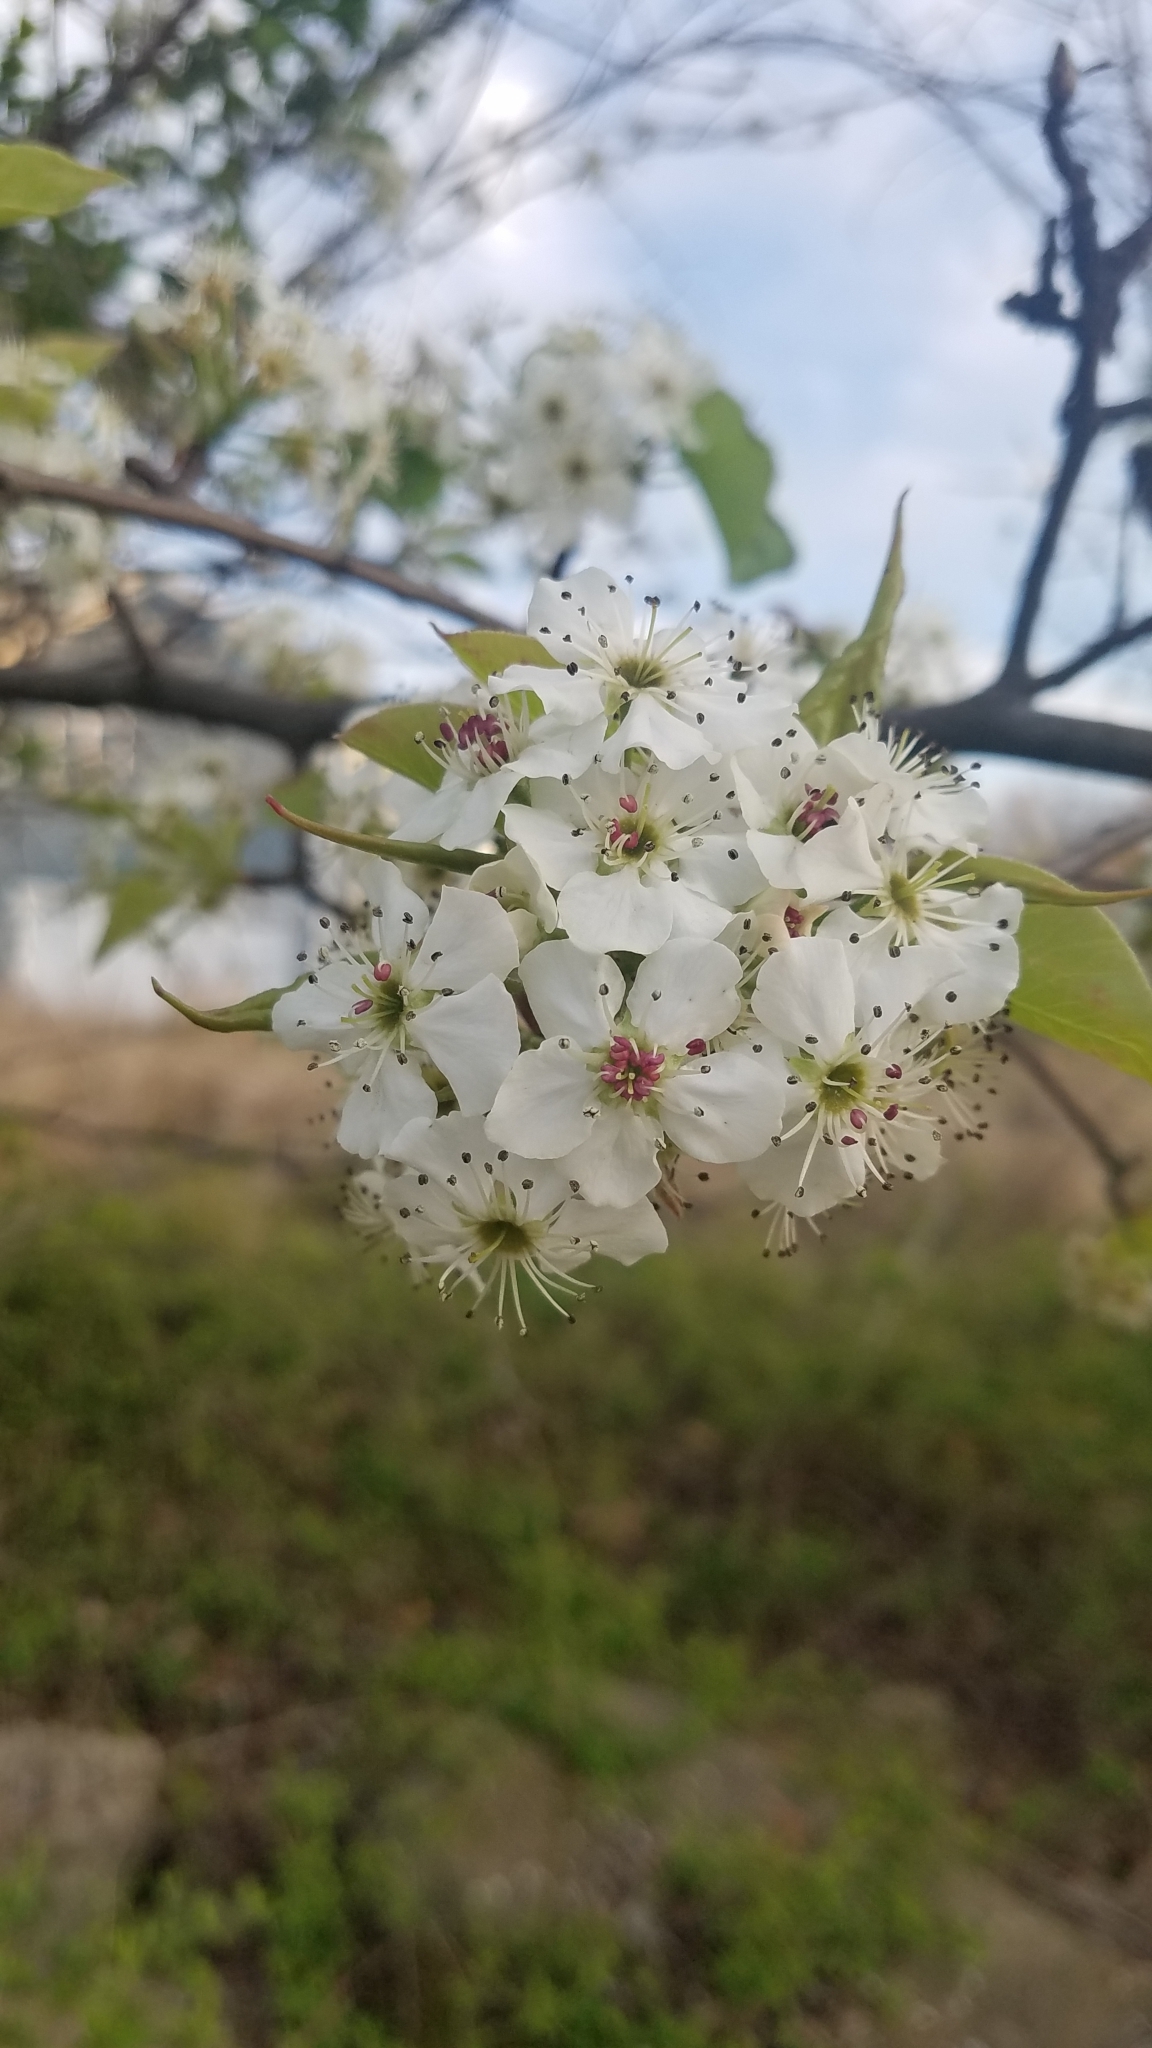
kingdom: Plantae
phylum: Tracheophyta
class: Magnoliopsida
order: Rosales
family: Rosaceae
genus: Pyrus
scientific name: Pyrus calleryana
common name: Callery pear
